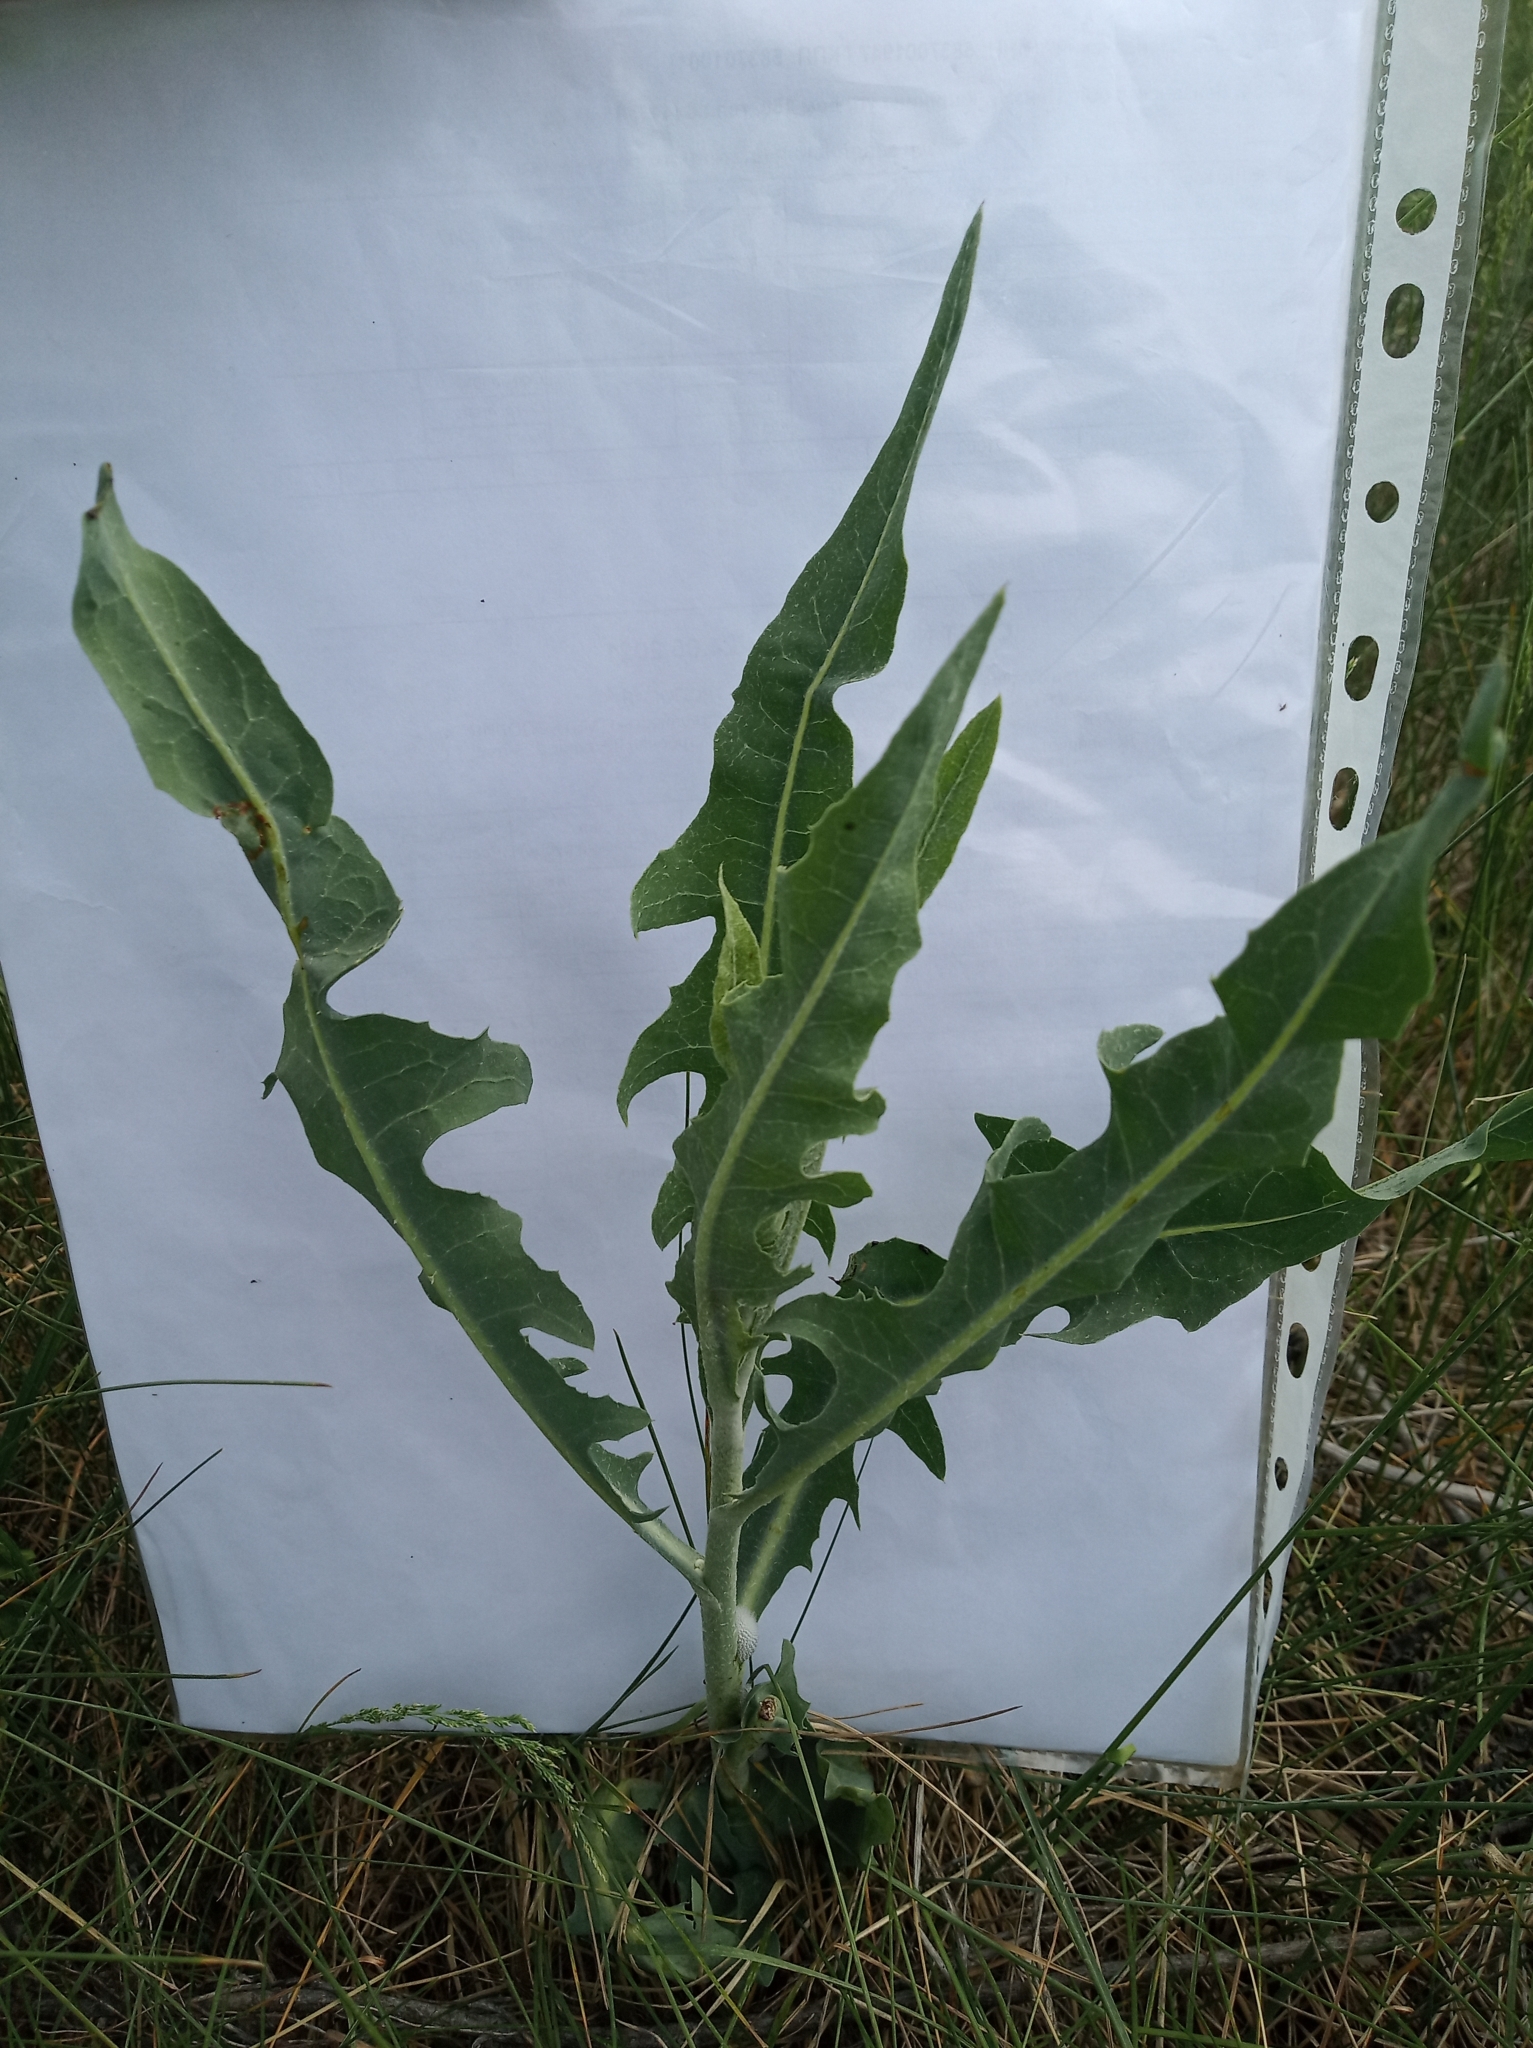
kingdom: Plantae
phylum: Tracheophyta
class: Magnoliopsida
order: Asterales
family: Asteraceae
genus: Lactuca
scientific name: Lactuca tatarica
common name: Blue lettuce
